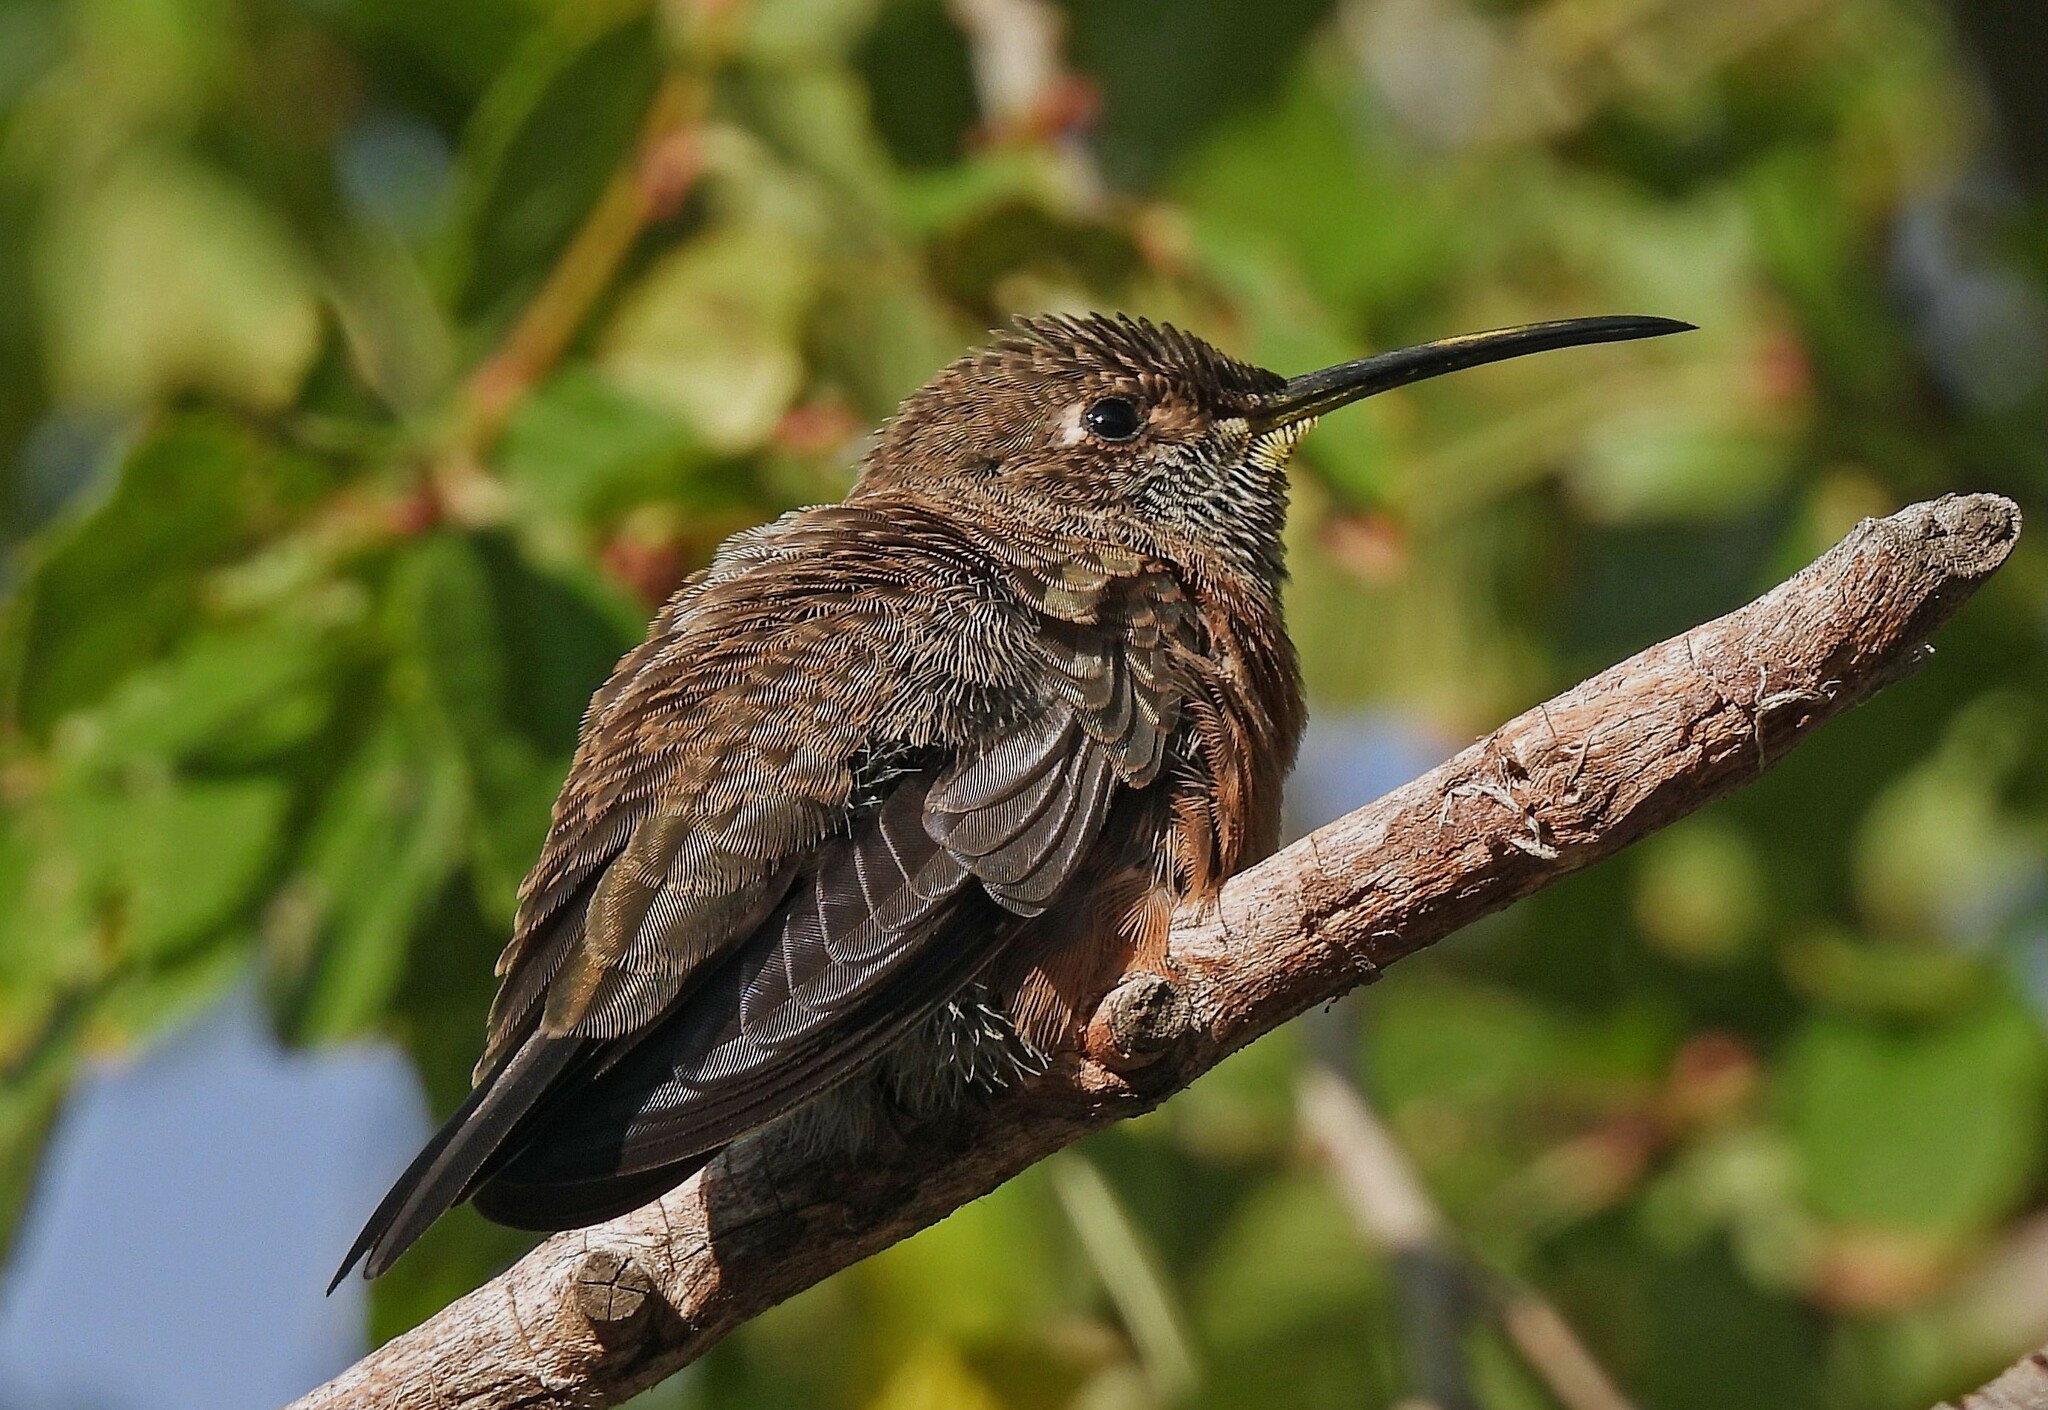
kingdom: Animalia
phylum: Chordata
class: Aves
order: Apodiformes
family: Trochilidae
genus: Oreotrochilus
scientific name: Oreotrochilus adela
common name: Wedge-tailed hillstar
